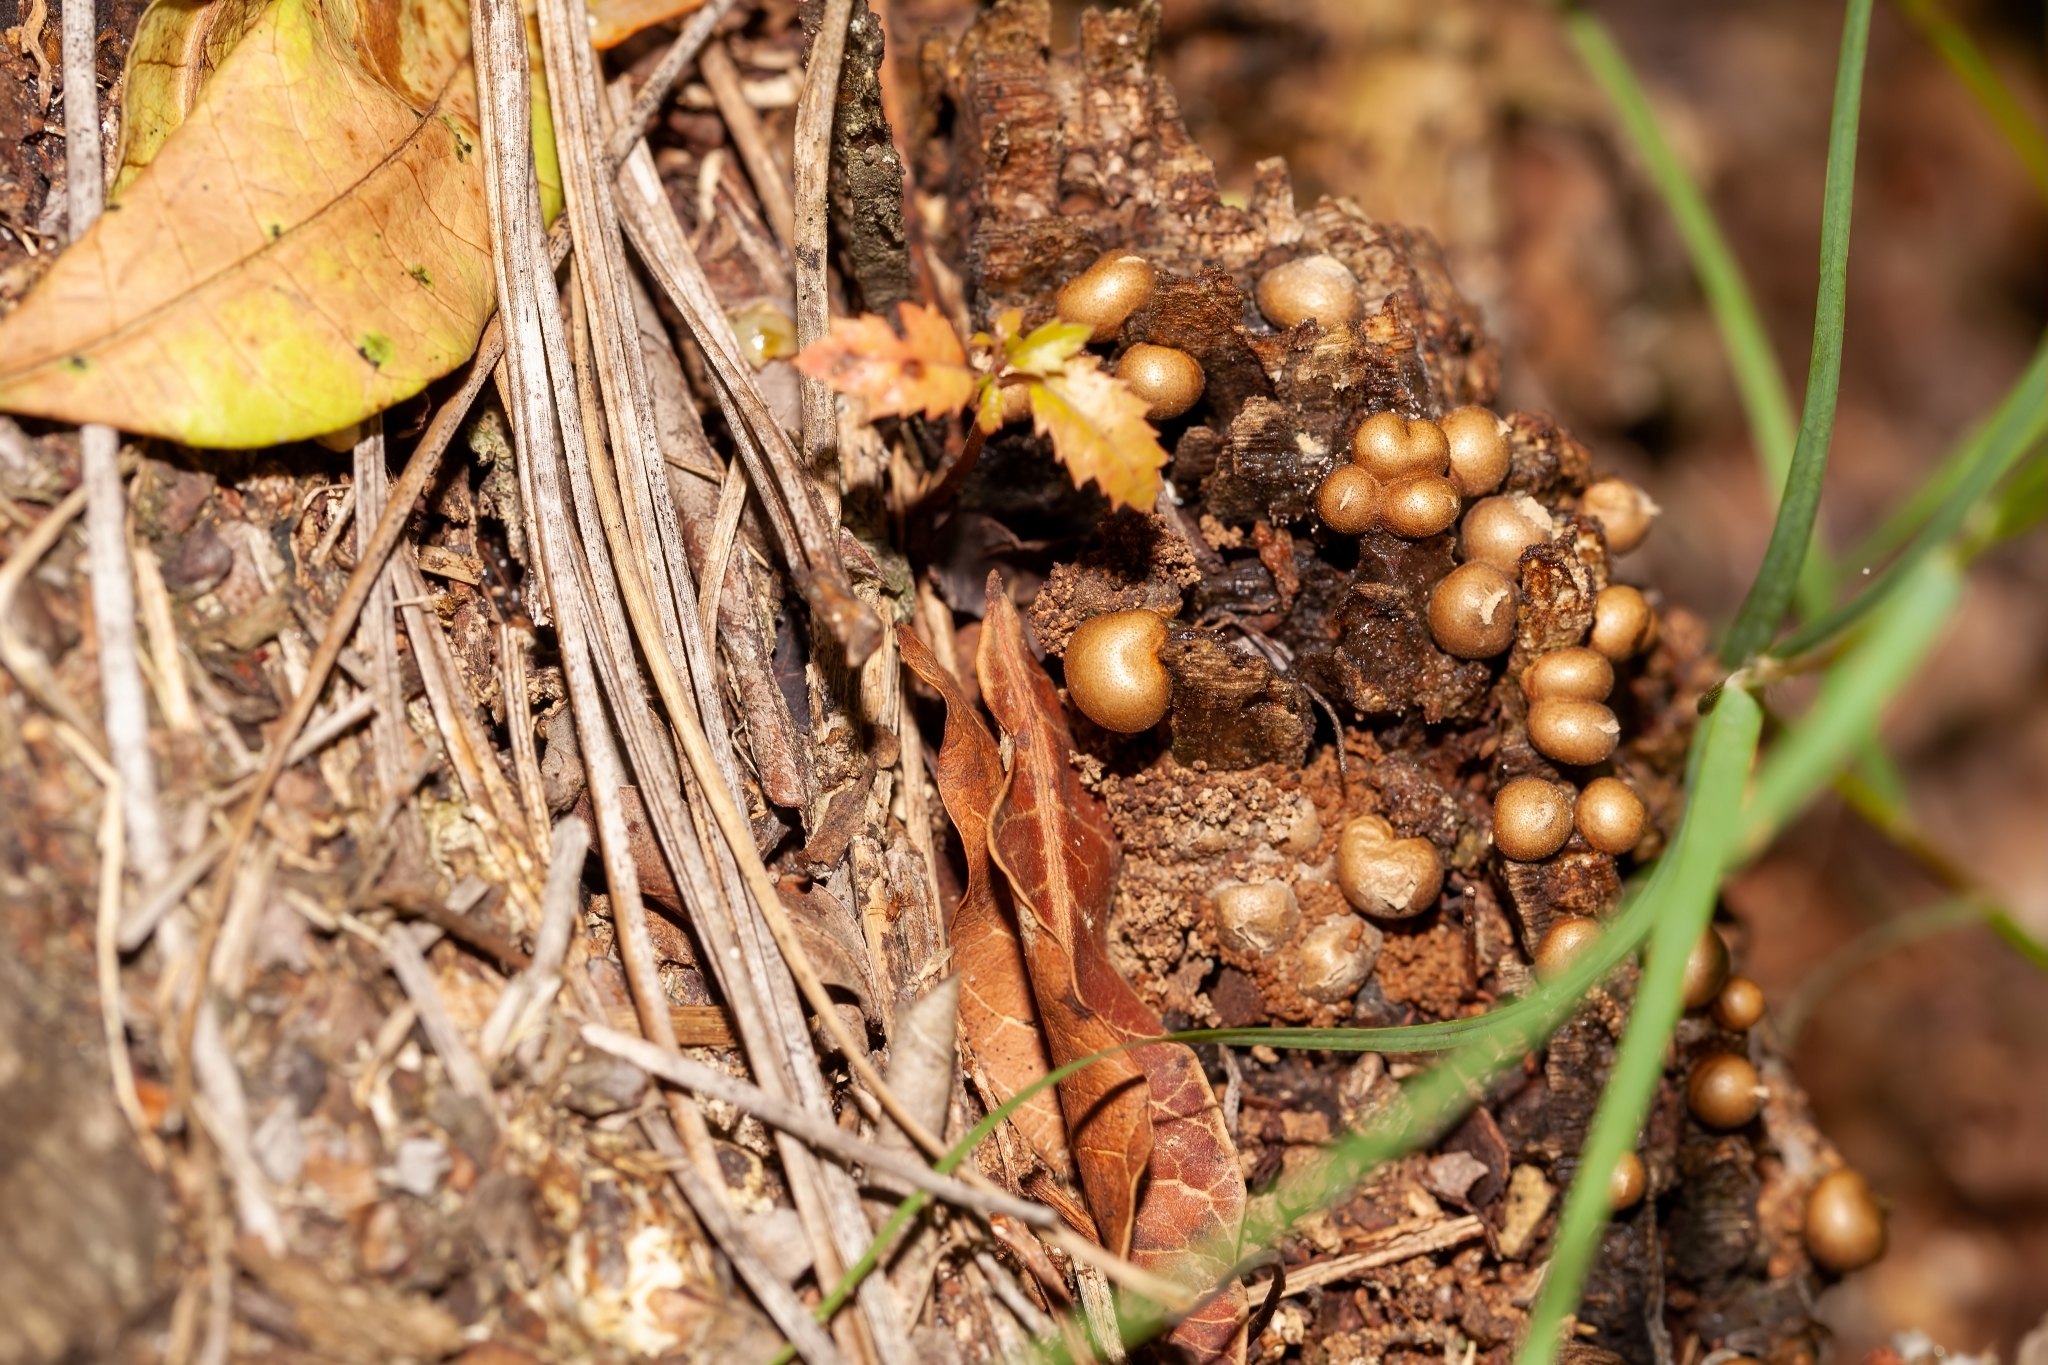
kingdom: Protozoa
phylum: Mycetozoa
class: Myxomycetes
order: Cribrariales
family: Tubiferaceae
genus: Lycogala
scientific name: Lycogala epidendrum
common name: Wolf's milk
